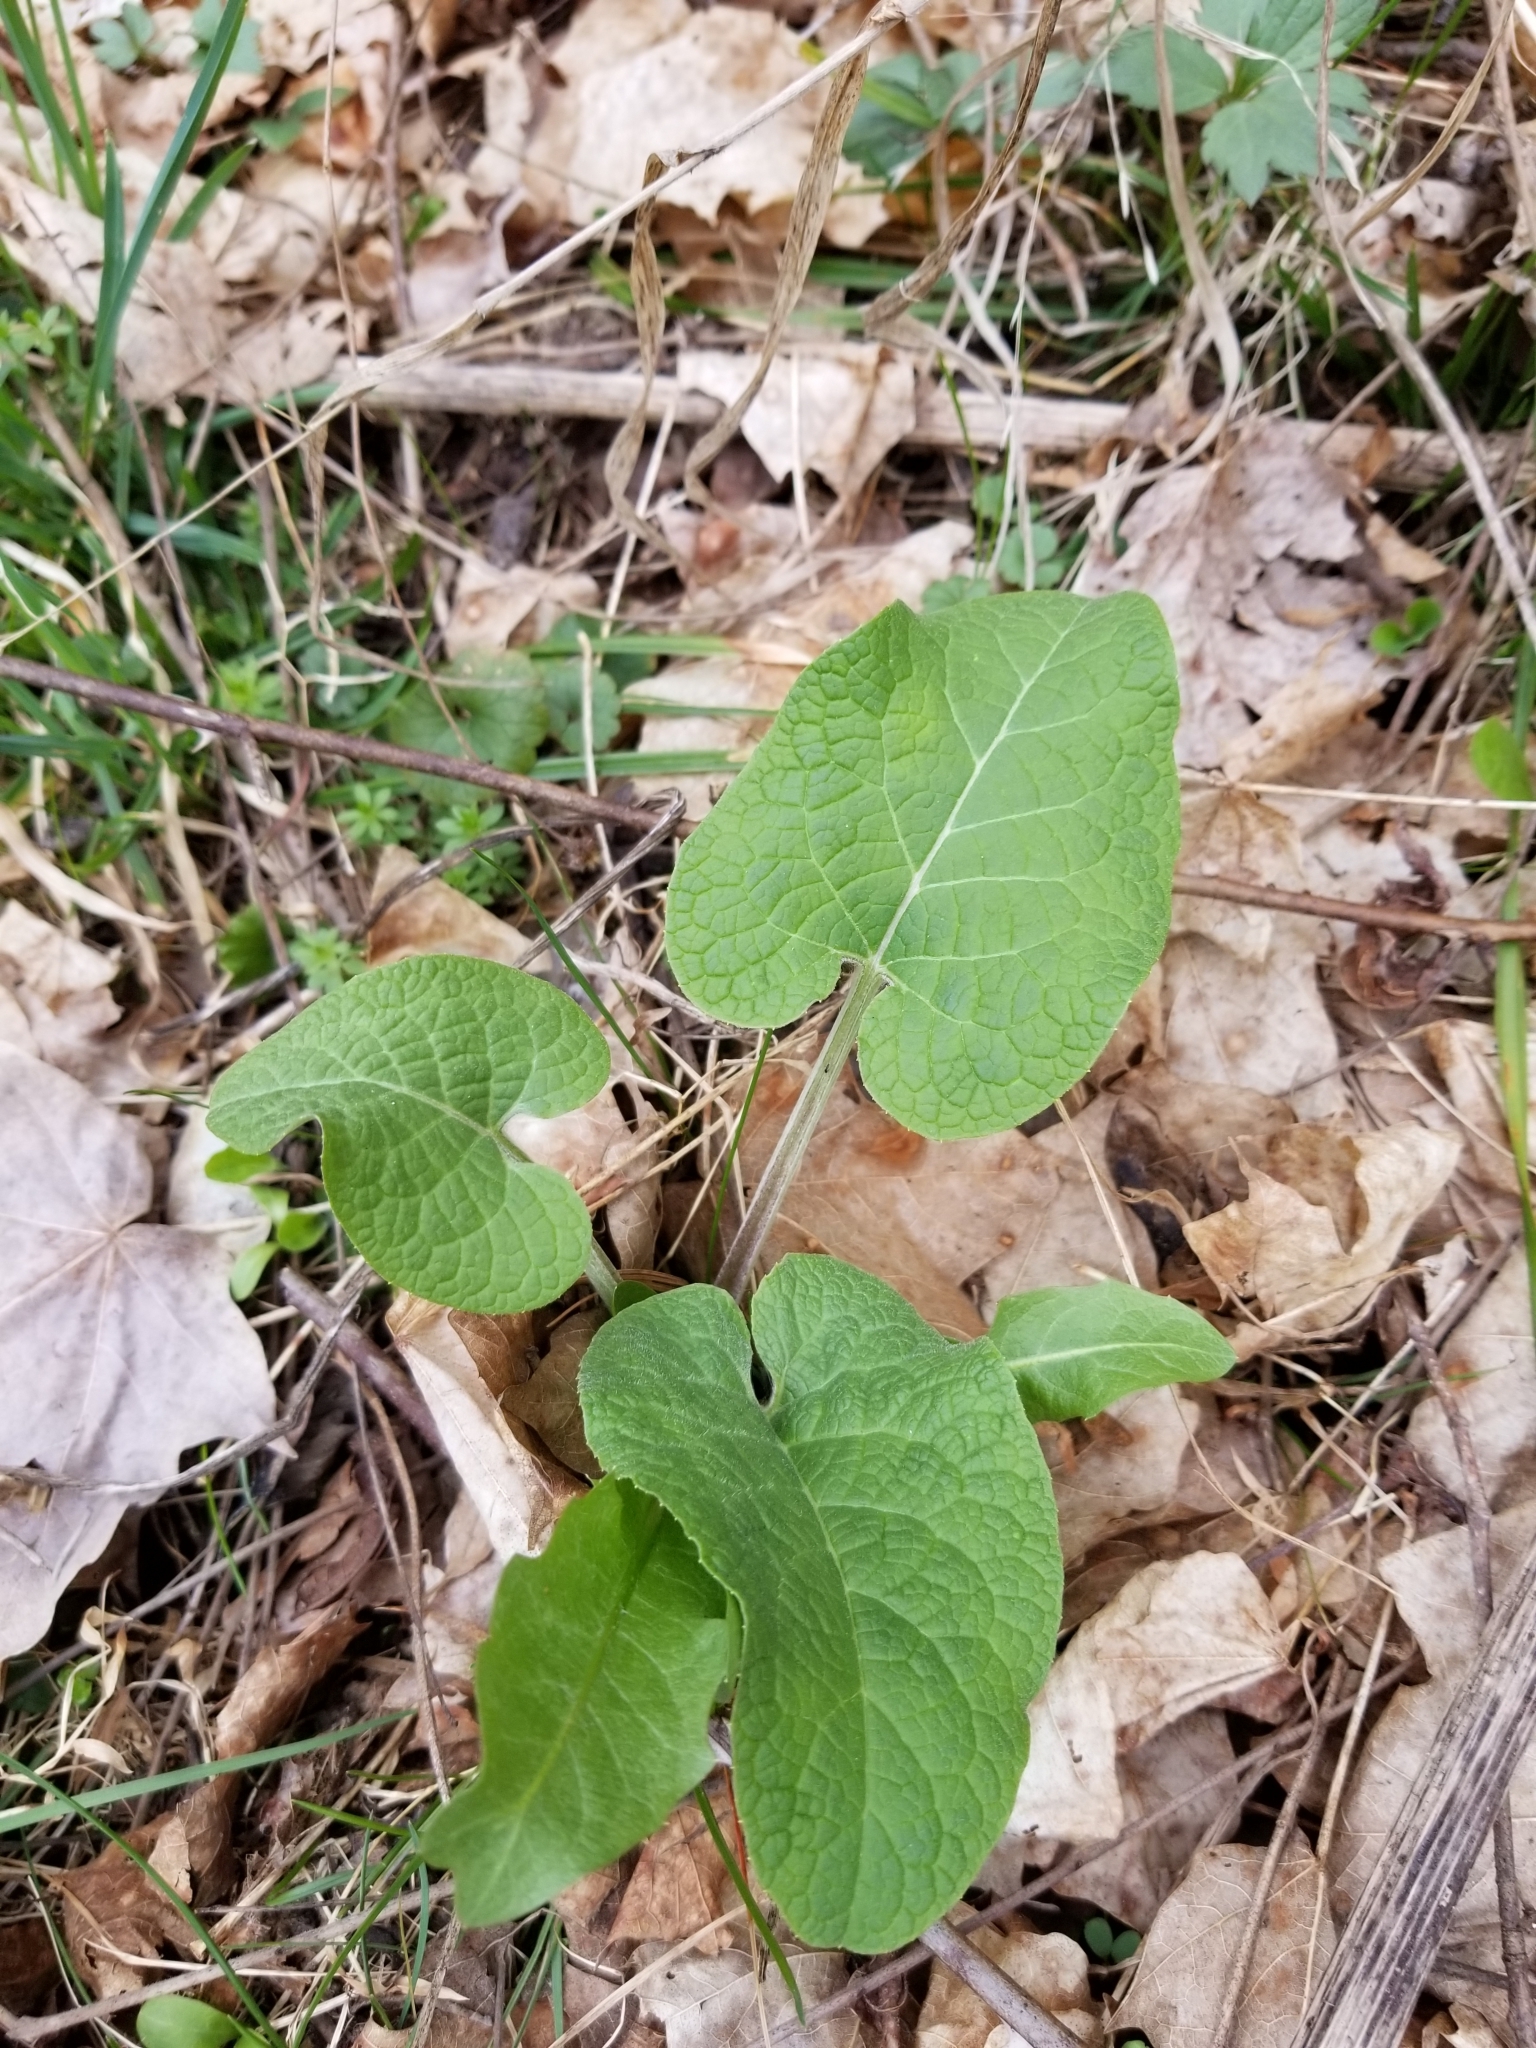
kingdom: Plantae
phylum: Tracheophyta
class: Magnoliopsida
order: Asterales
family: Asteraceae
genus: Arctium
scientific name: Arctium
